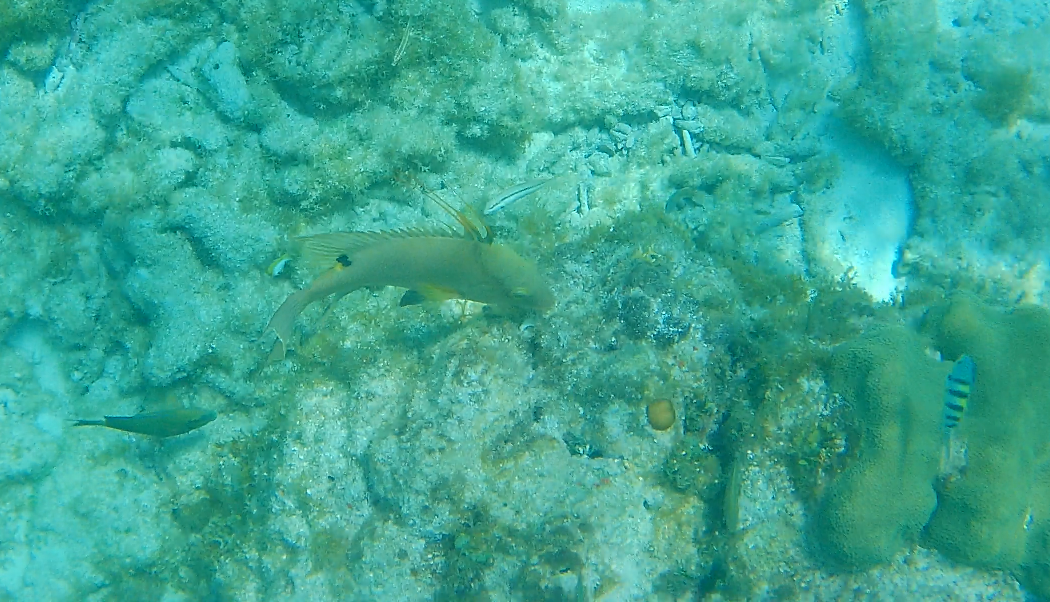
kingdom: Animalia
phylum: Chordata
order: Perciformes
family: Labridae
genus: Lachnolaimus
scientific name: Lachnolaimus maximus
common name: Hogfish
